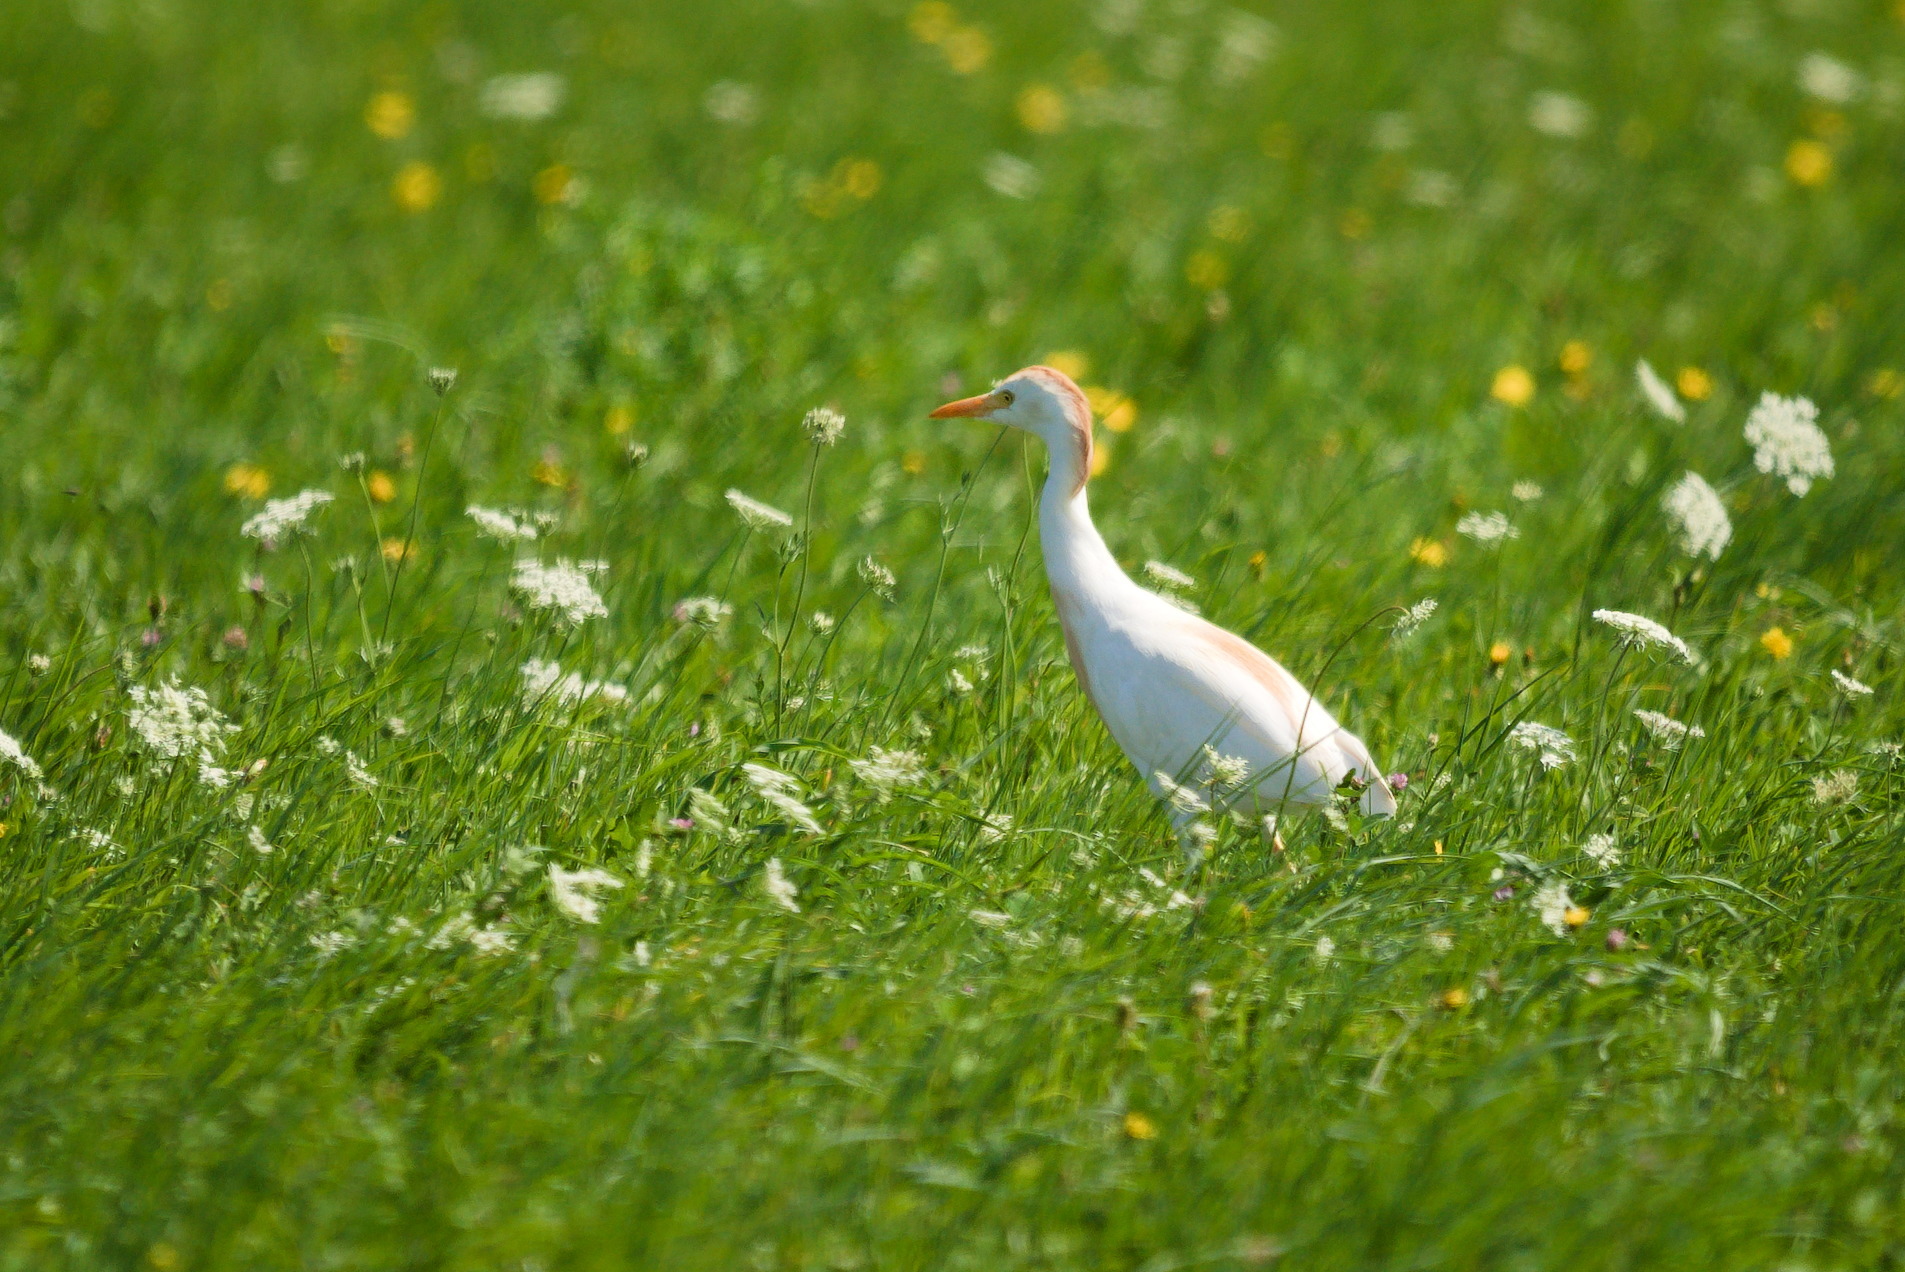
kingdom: Animalia
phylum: Chordata
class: Aves
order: Pelecaniformes
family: Ardeidae
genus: Bubulcus
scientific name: Bubulcus ibis
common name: Cattle egret
